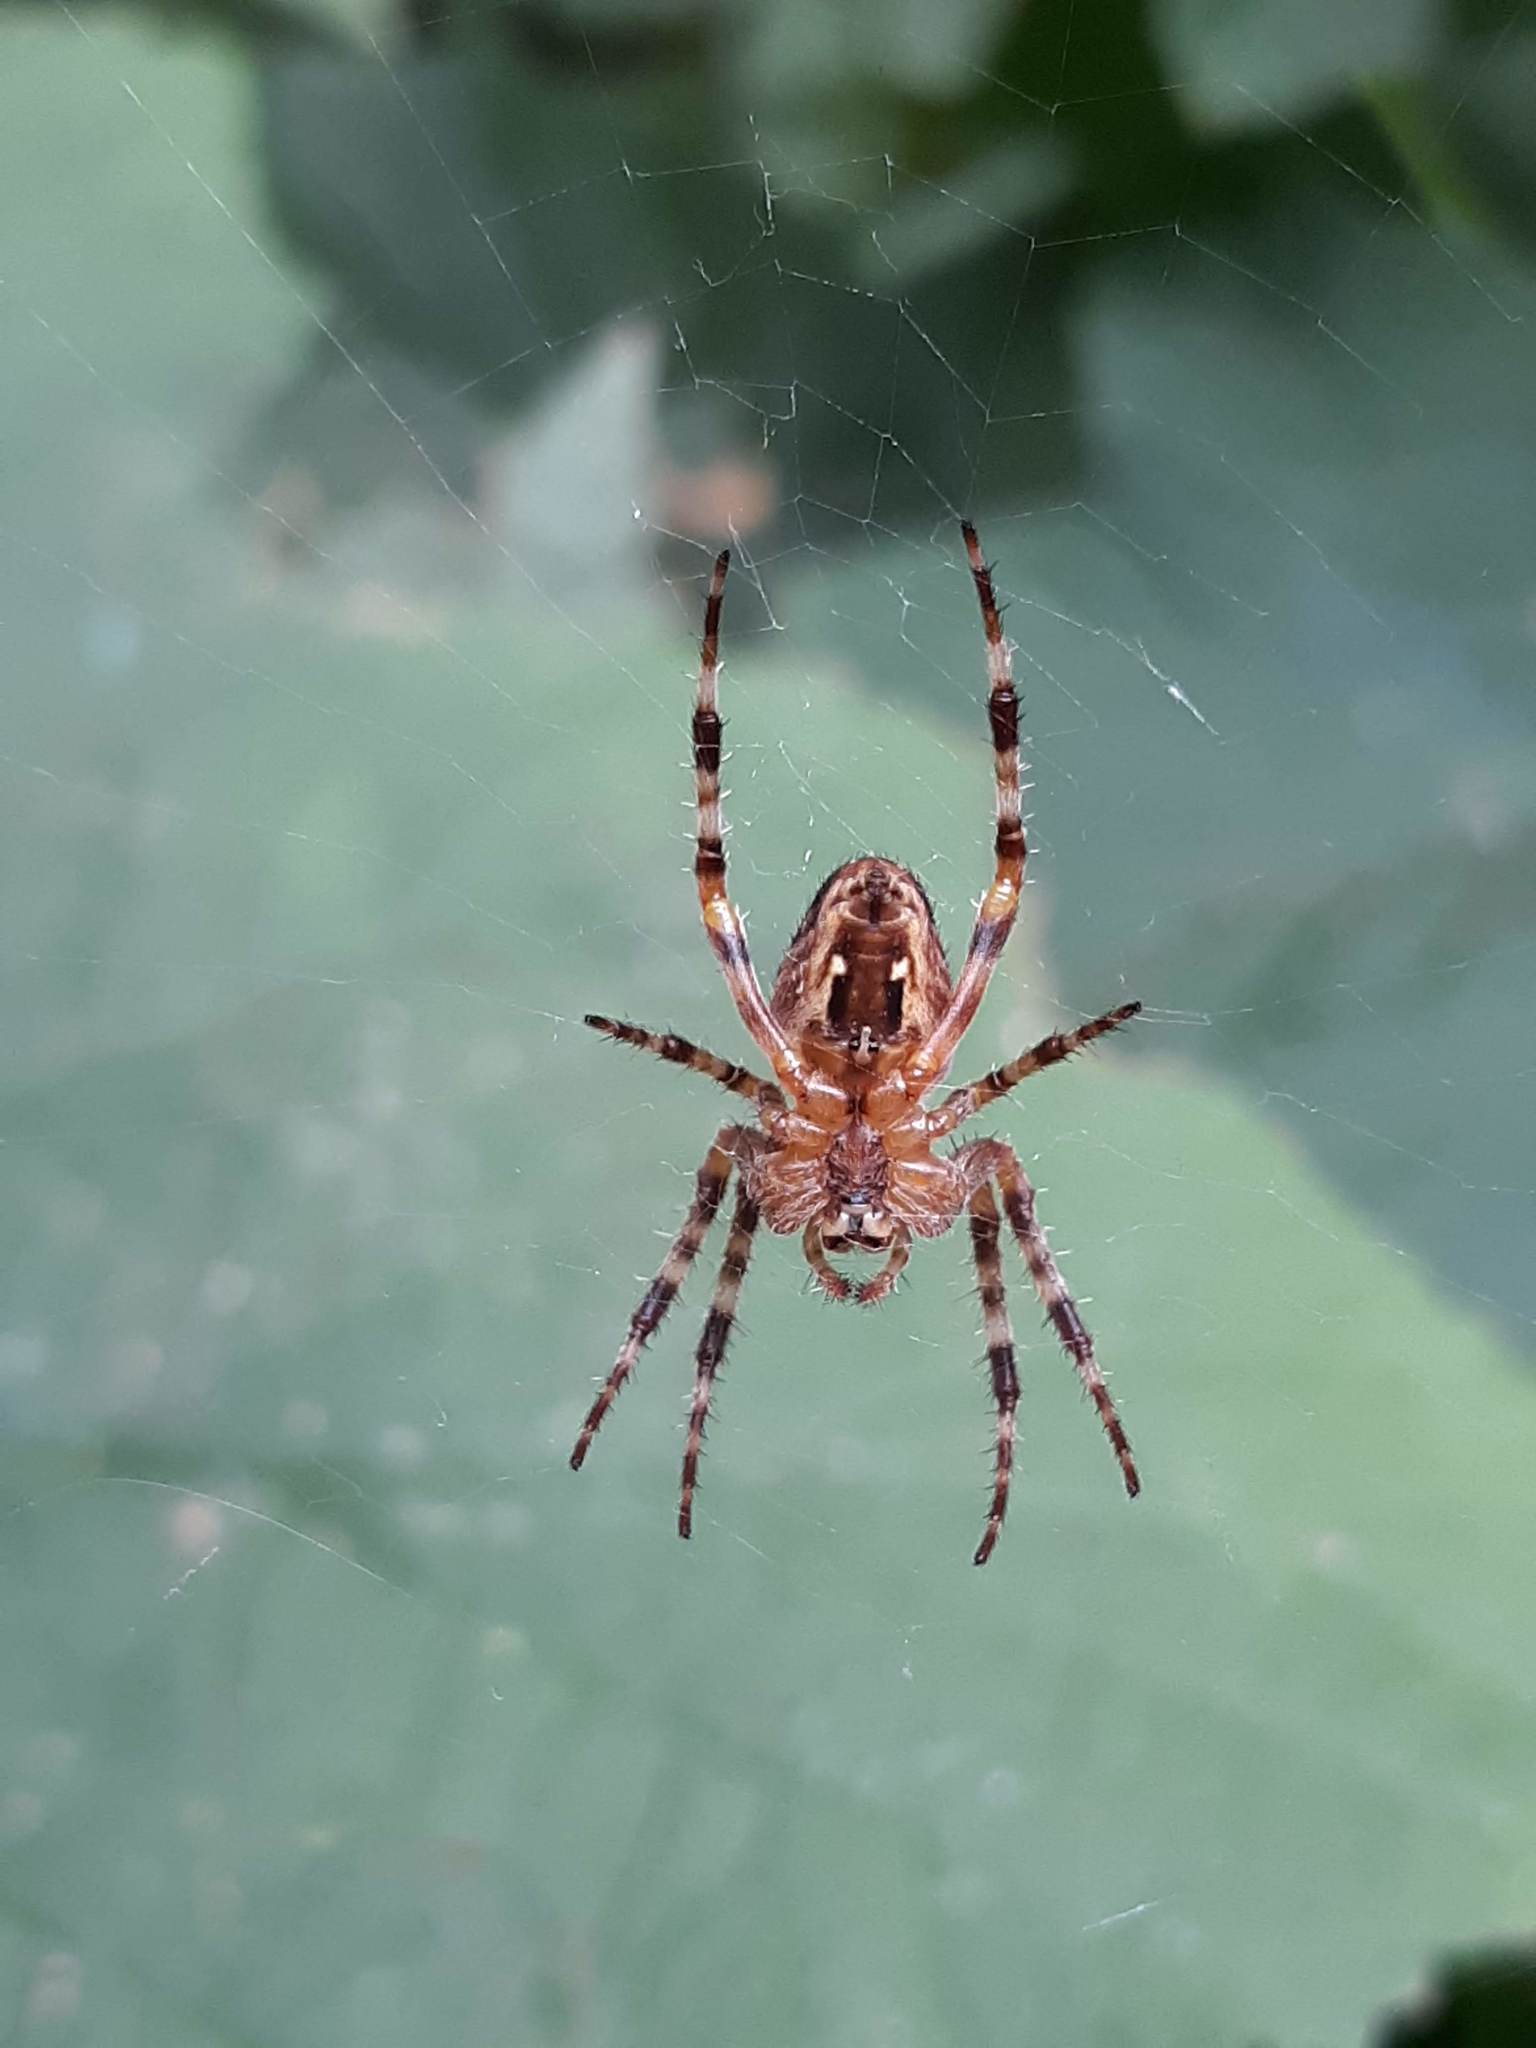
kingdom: Animalia
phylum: Arthropoda
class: Arachnida
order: Araneae
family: Araneidae
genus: Araneus
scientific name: Araneus diadematus
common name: Cross orbweaver
